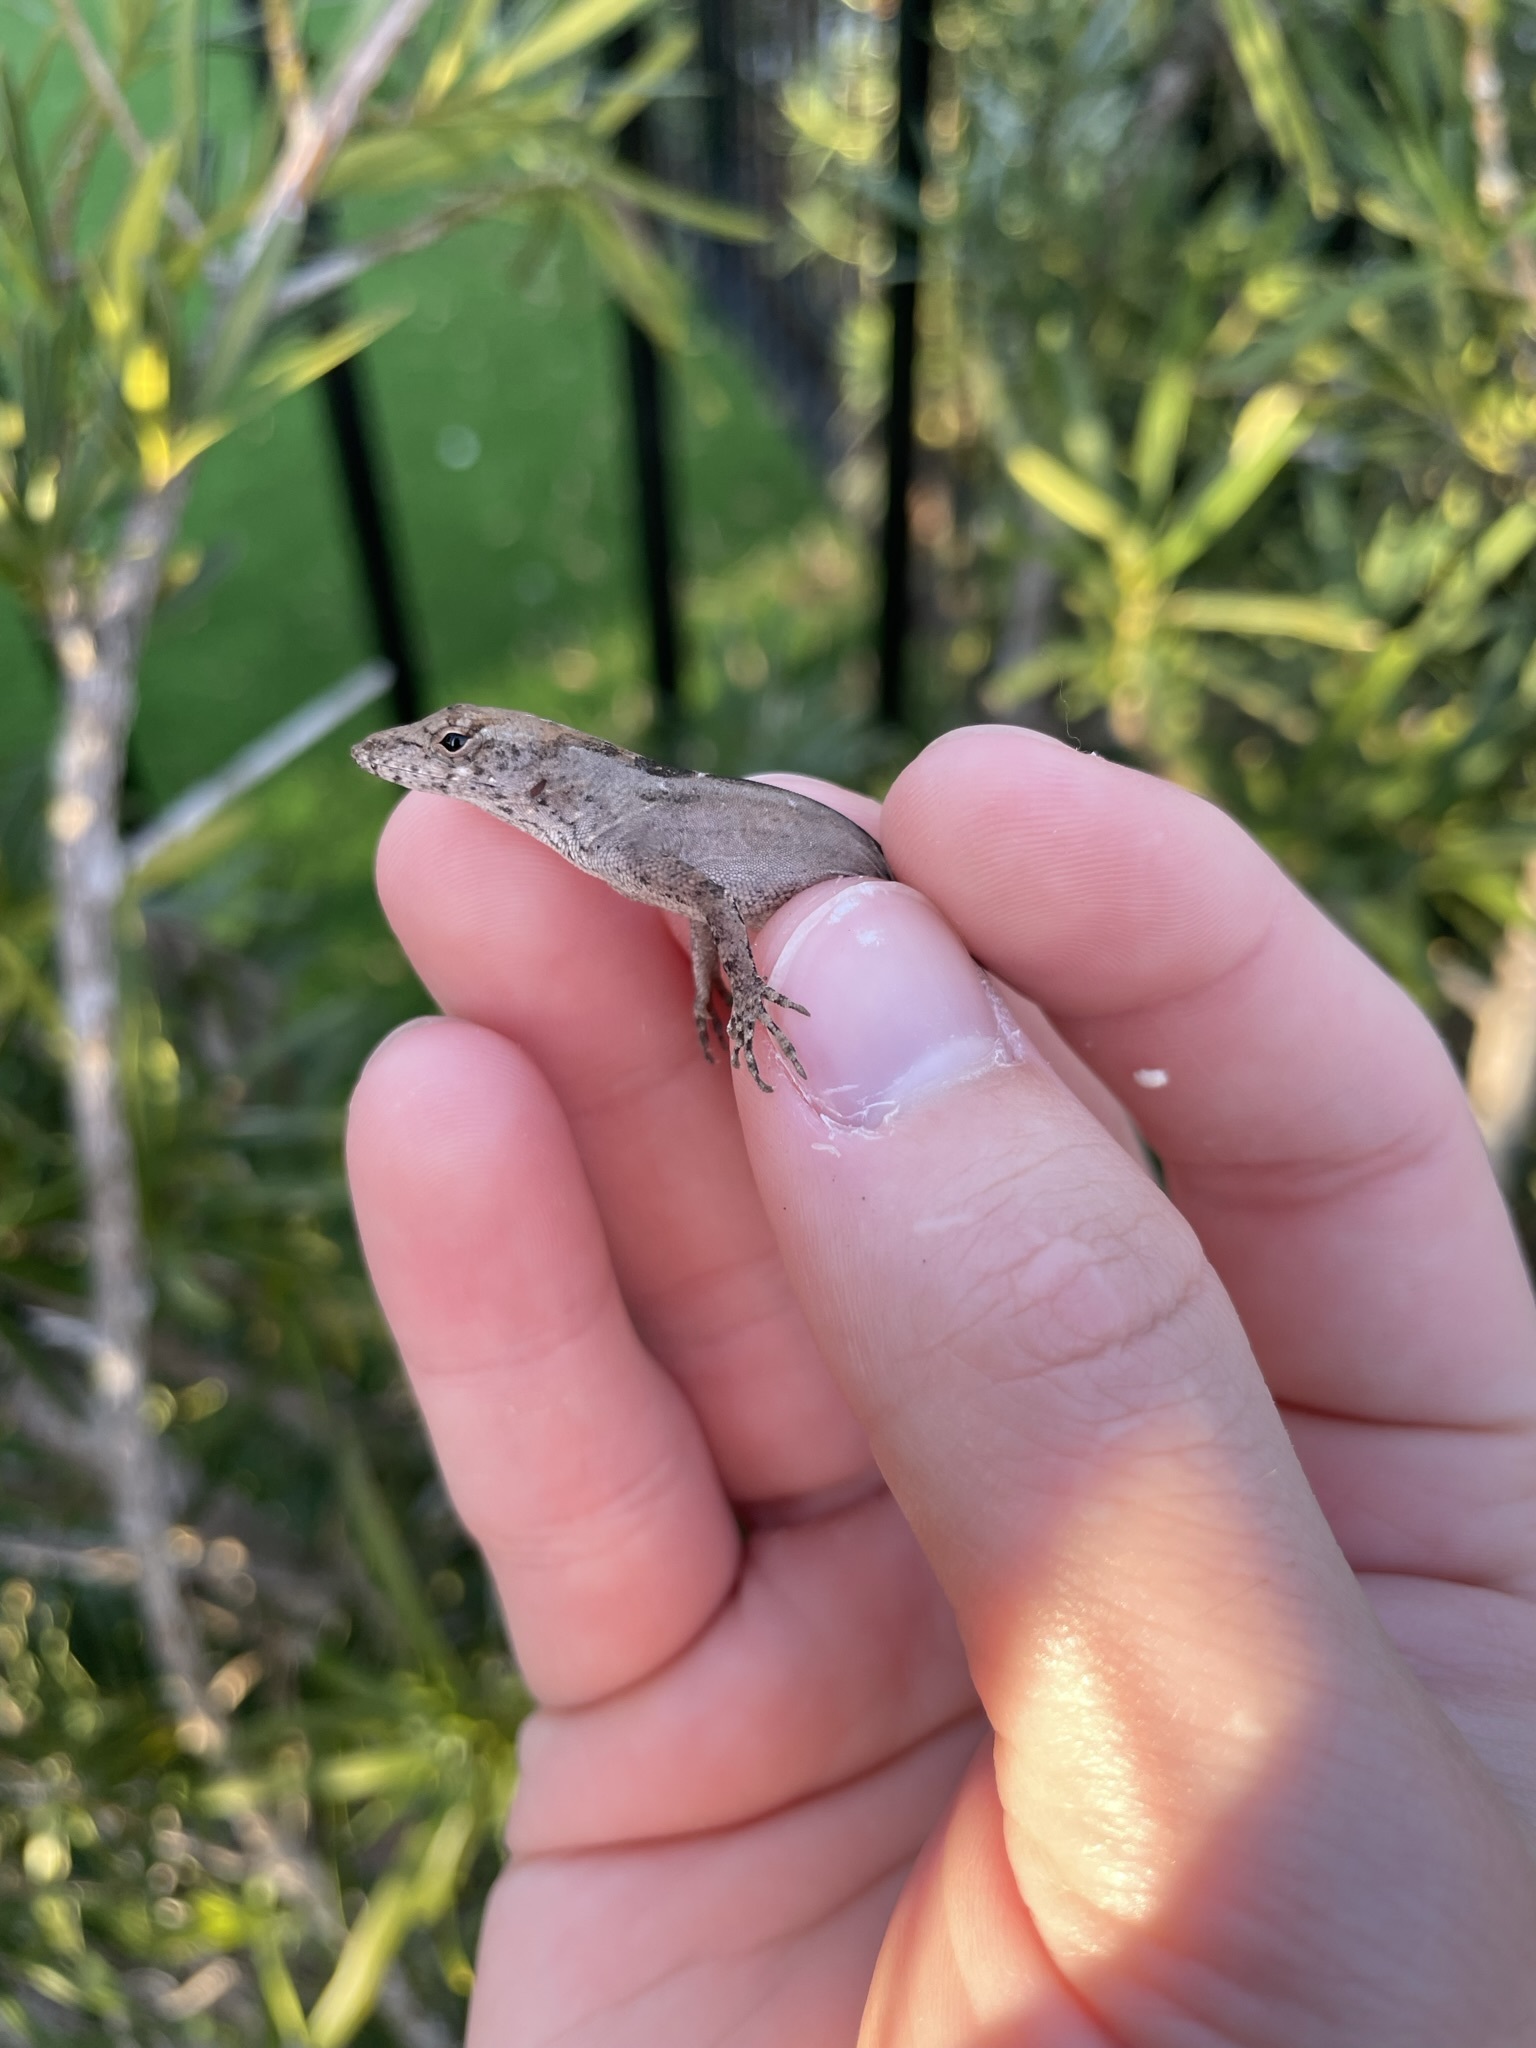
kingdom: Animalia
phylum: Chordata
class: Squamata
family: Dactyloidae
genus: Anolis
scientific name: Anolis sagrei
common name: Brown anole
